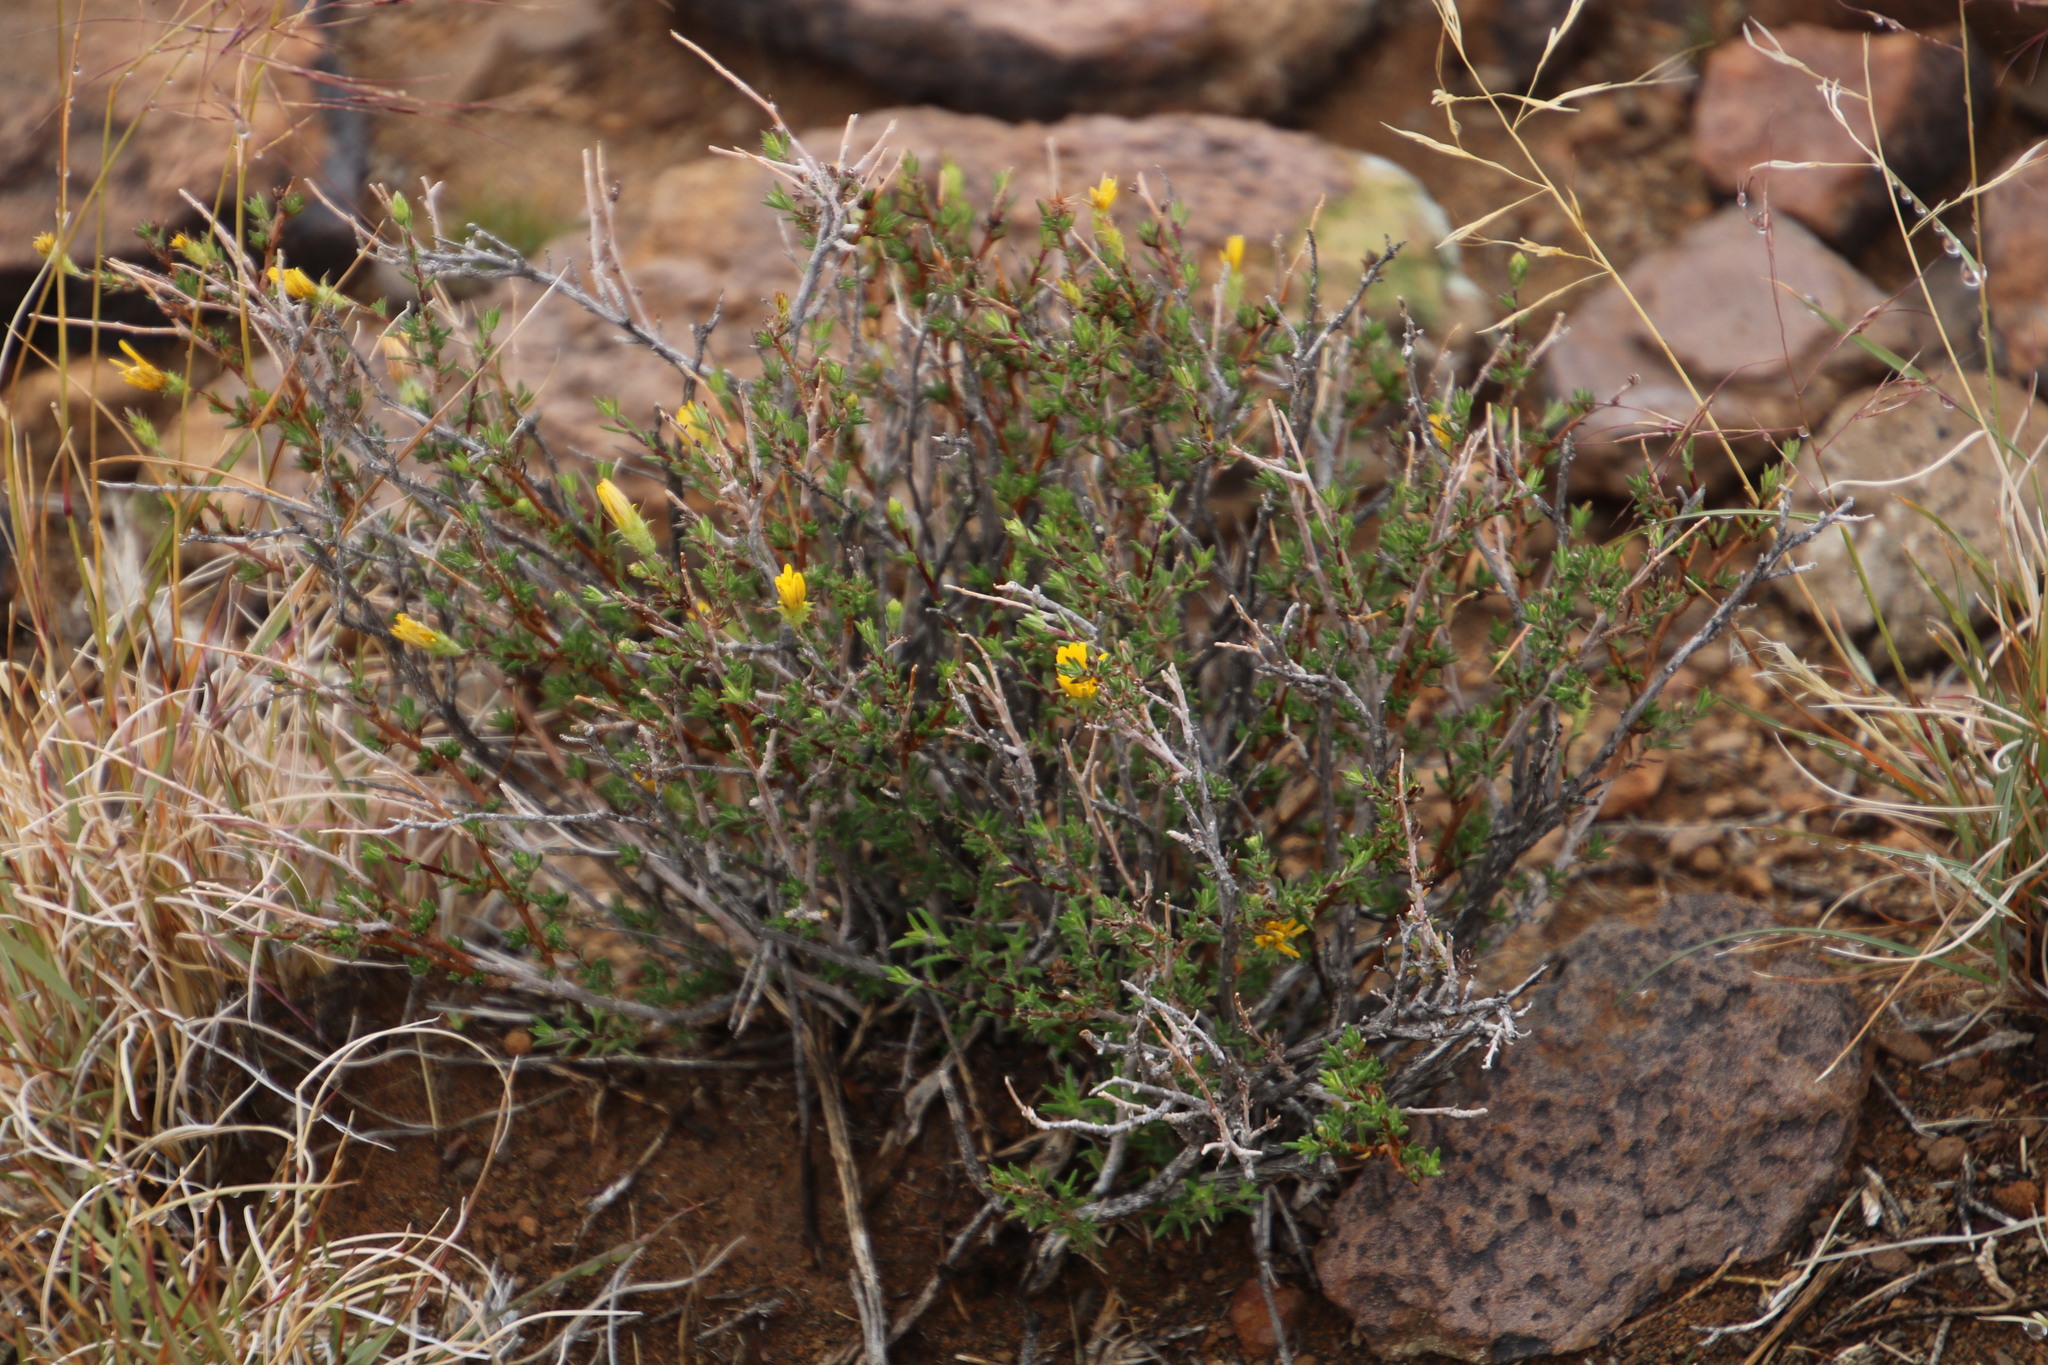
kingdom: Plantae
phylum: Tracheophyta
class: Magnoliopsida
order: Asterales
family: Asteraceae
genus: Gorteria
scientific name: Gorteria alienata
